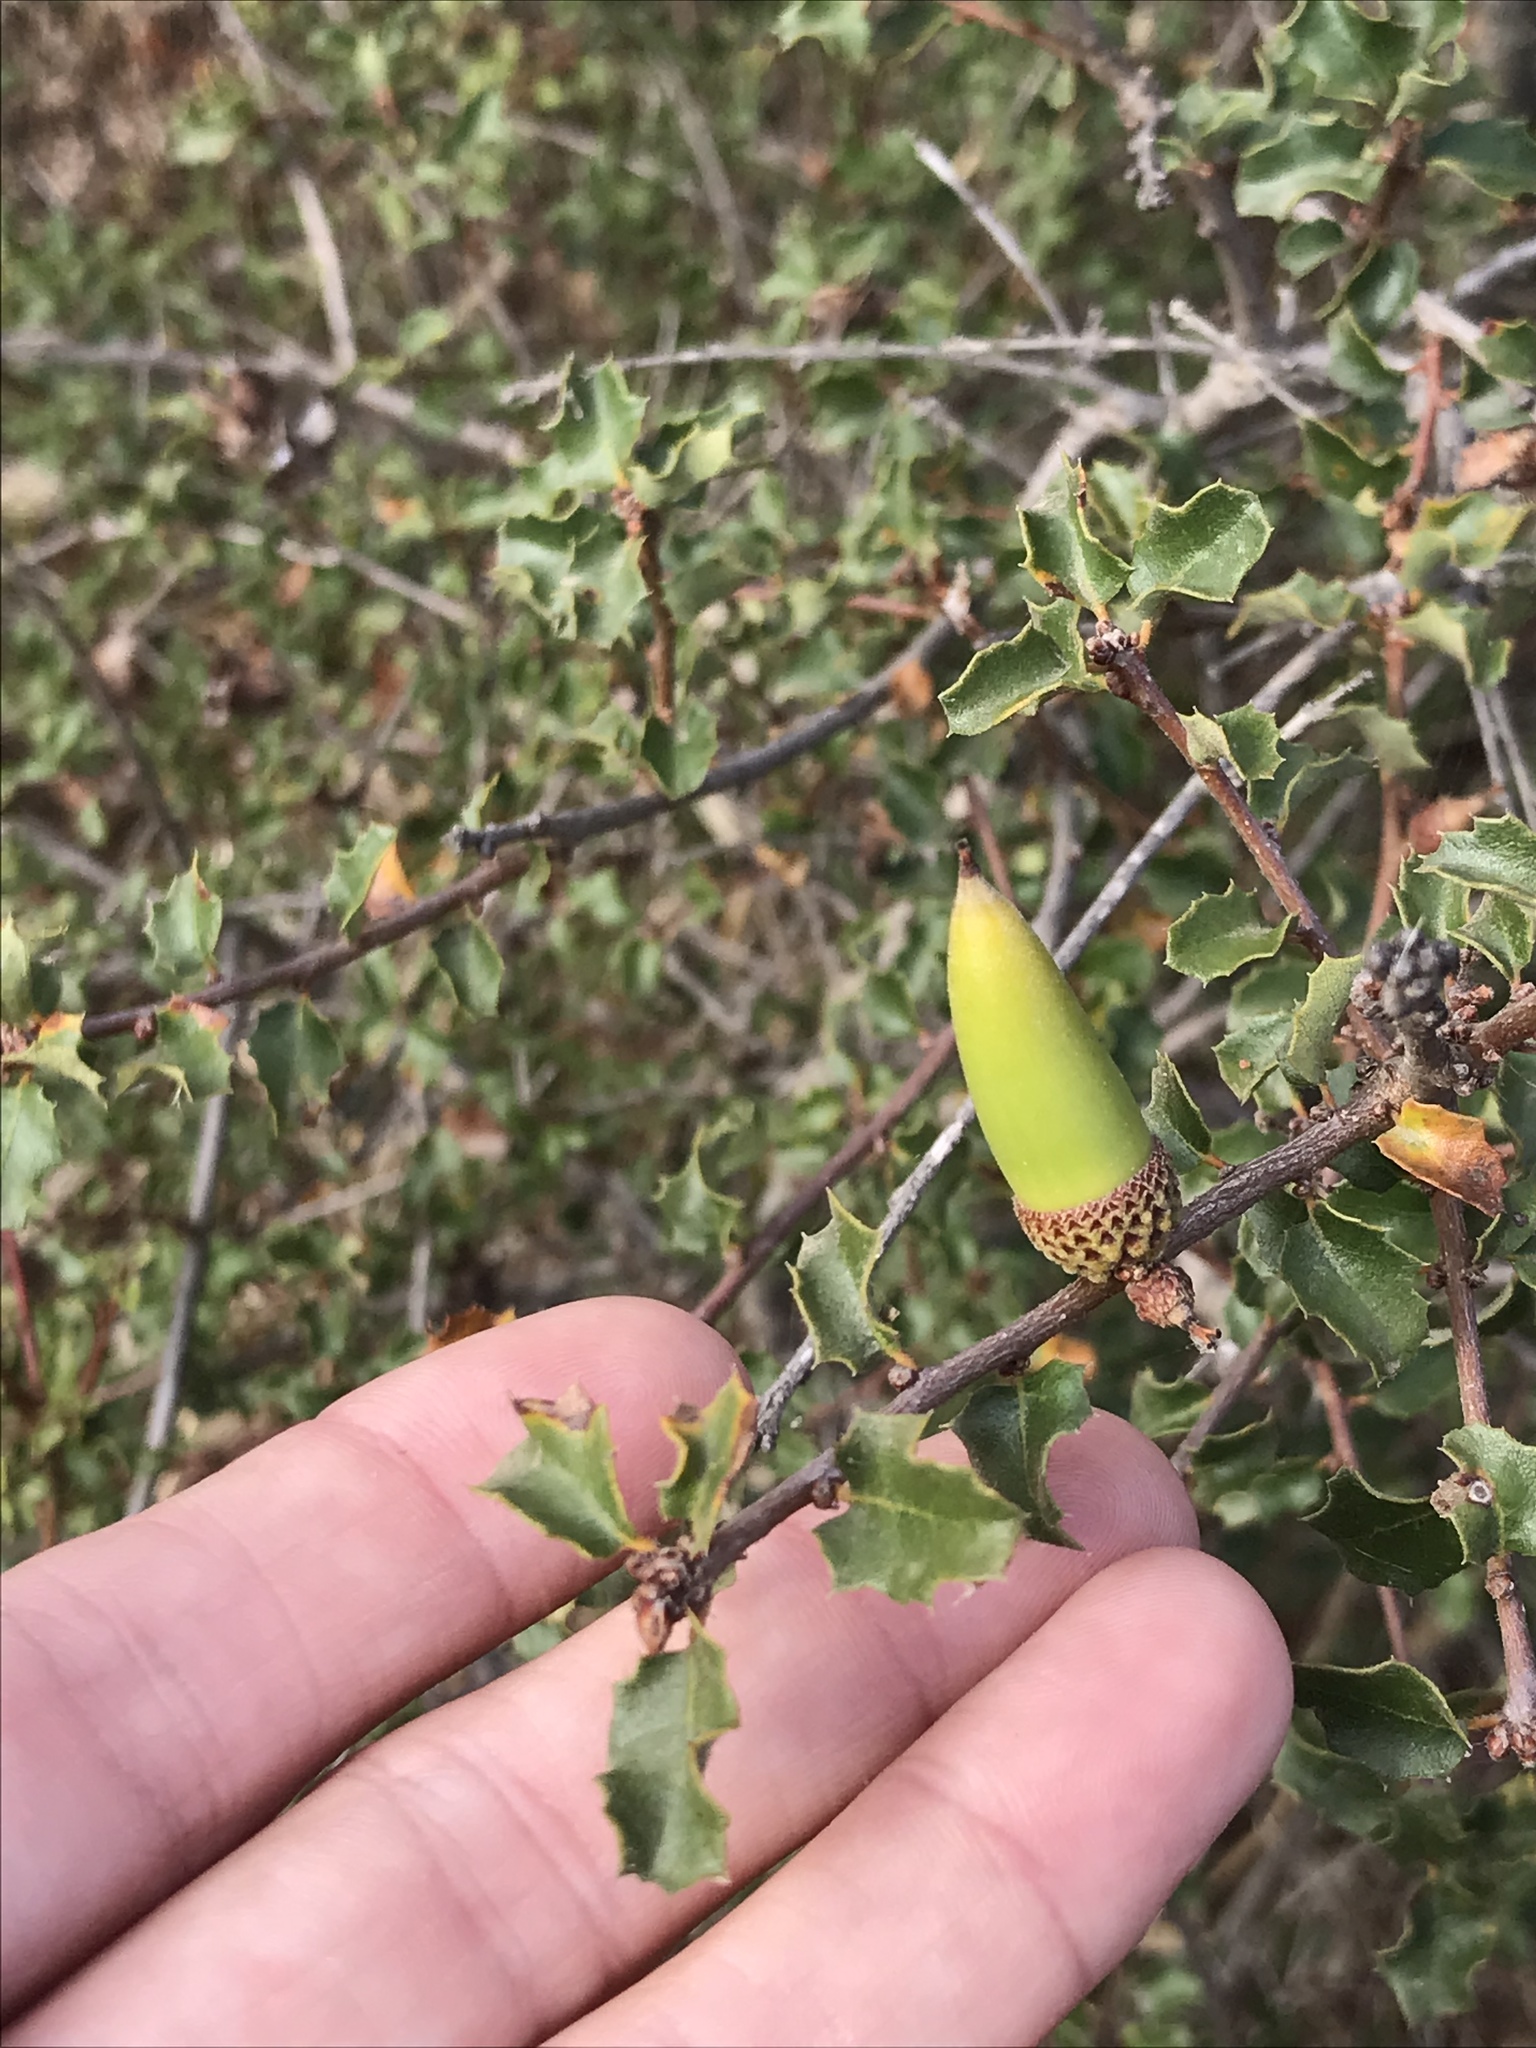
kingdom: Plantae
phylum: Tracheophyta
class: Magnoliopsida
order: Fagales
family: Fagaceae
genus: Quercus
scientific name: Quercus dumosa
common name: Coastal sage scrub oak
